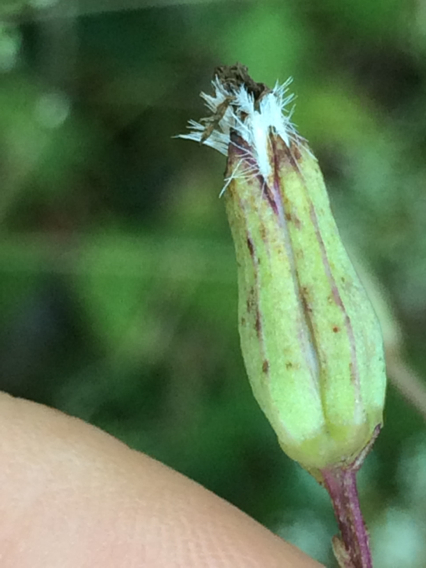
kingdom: Plantae
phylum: Tracheophyta
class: Magnoliopsida
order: Asterales
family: Asteraceae
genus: Arnoglossum
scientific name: Arnoglossum ovatum
